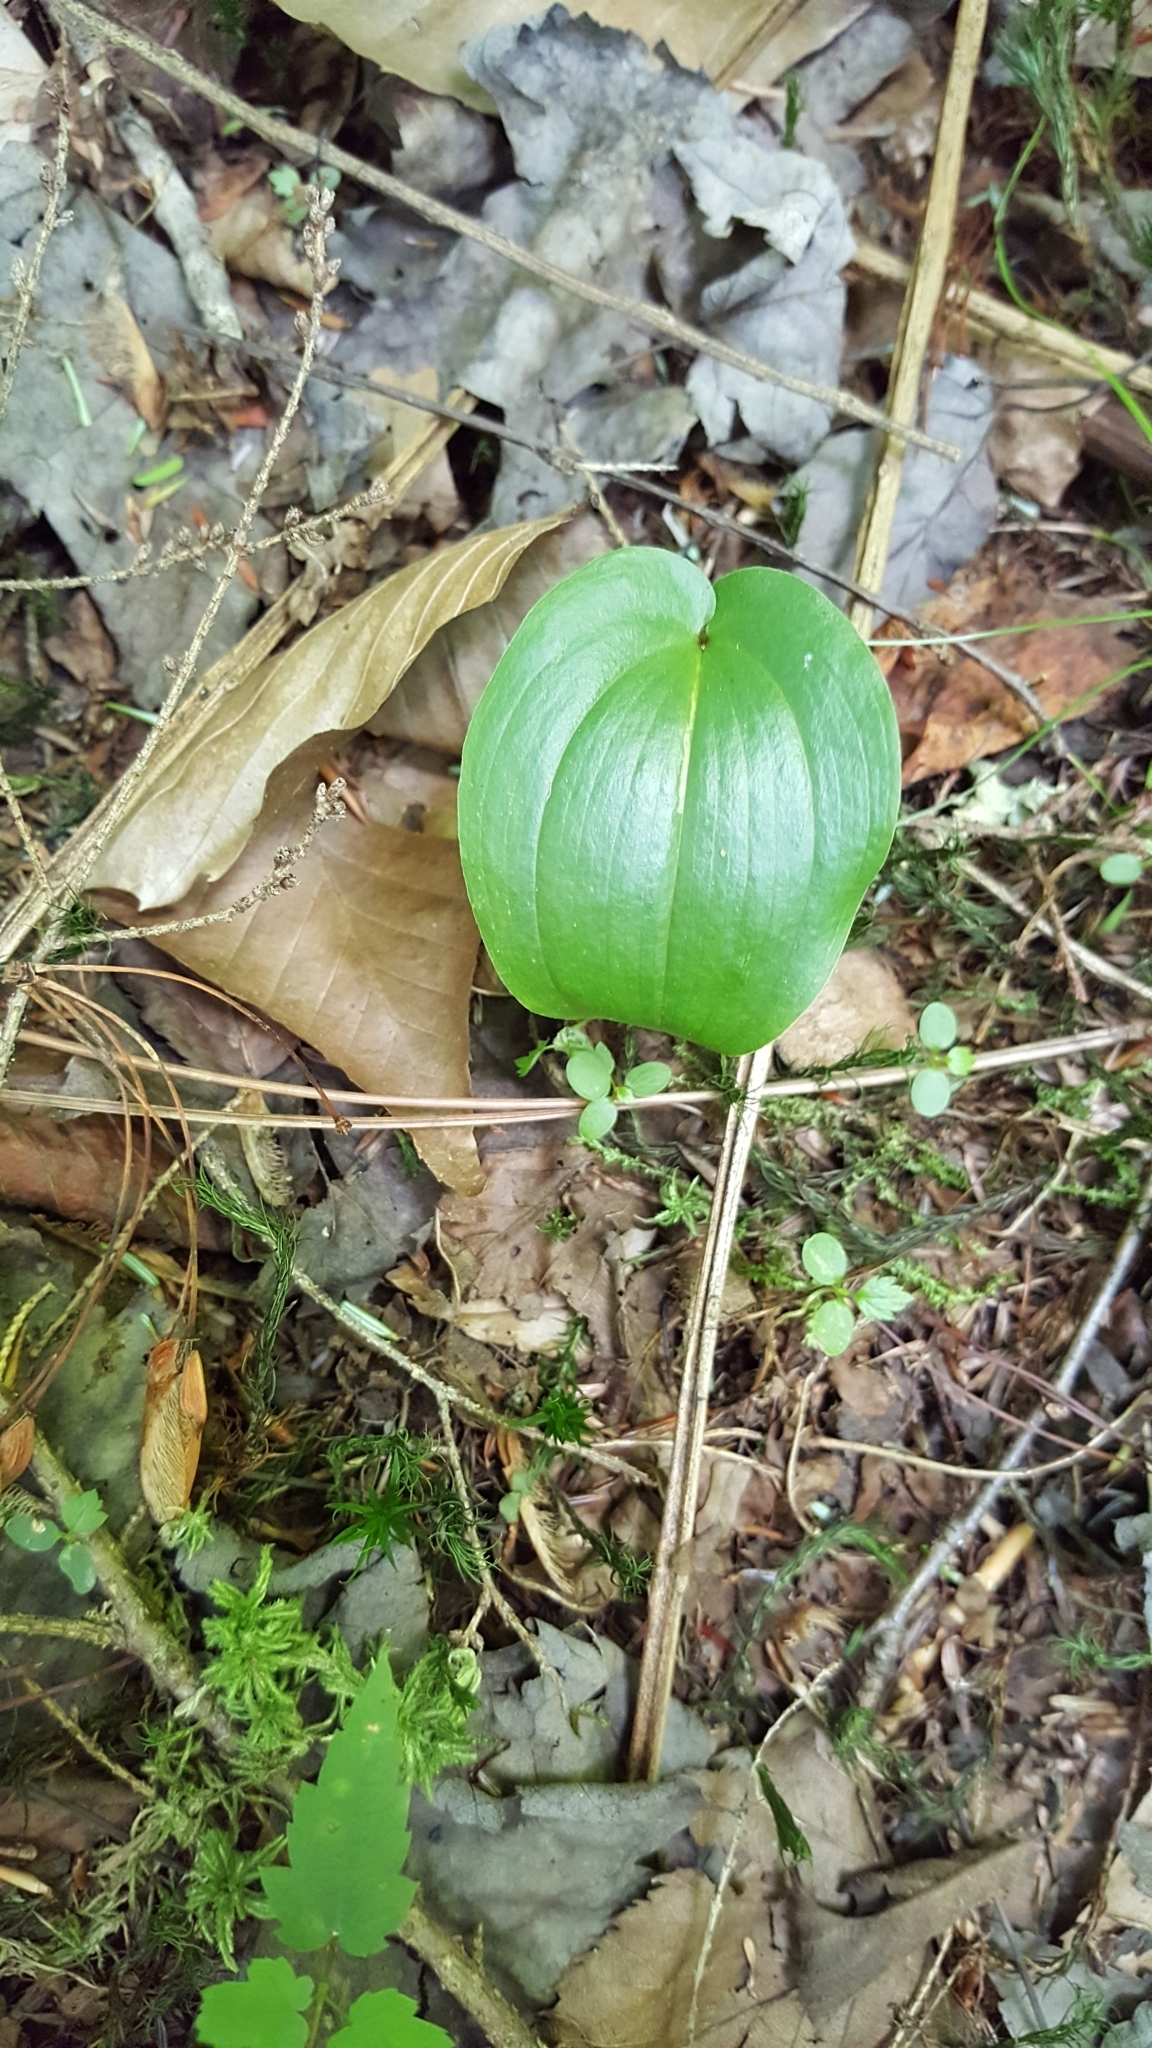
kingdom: Plantae
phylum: Tracheophyta
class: Liliopsida
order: Asparagales
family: Asparagaceae
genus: Maianthemum
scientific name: Maianthemum canadense
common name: False lily-of-the-valley
